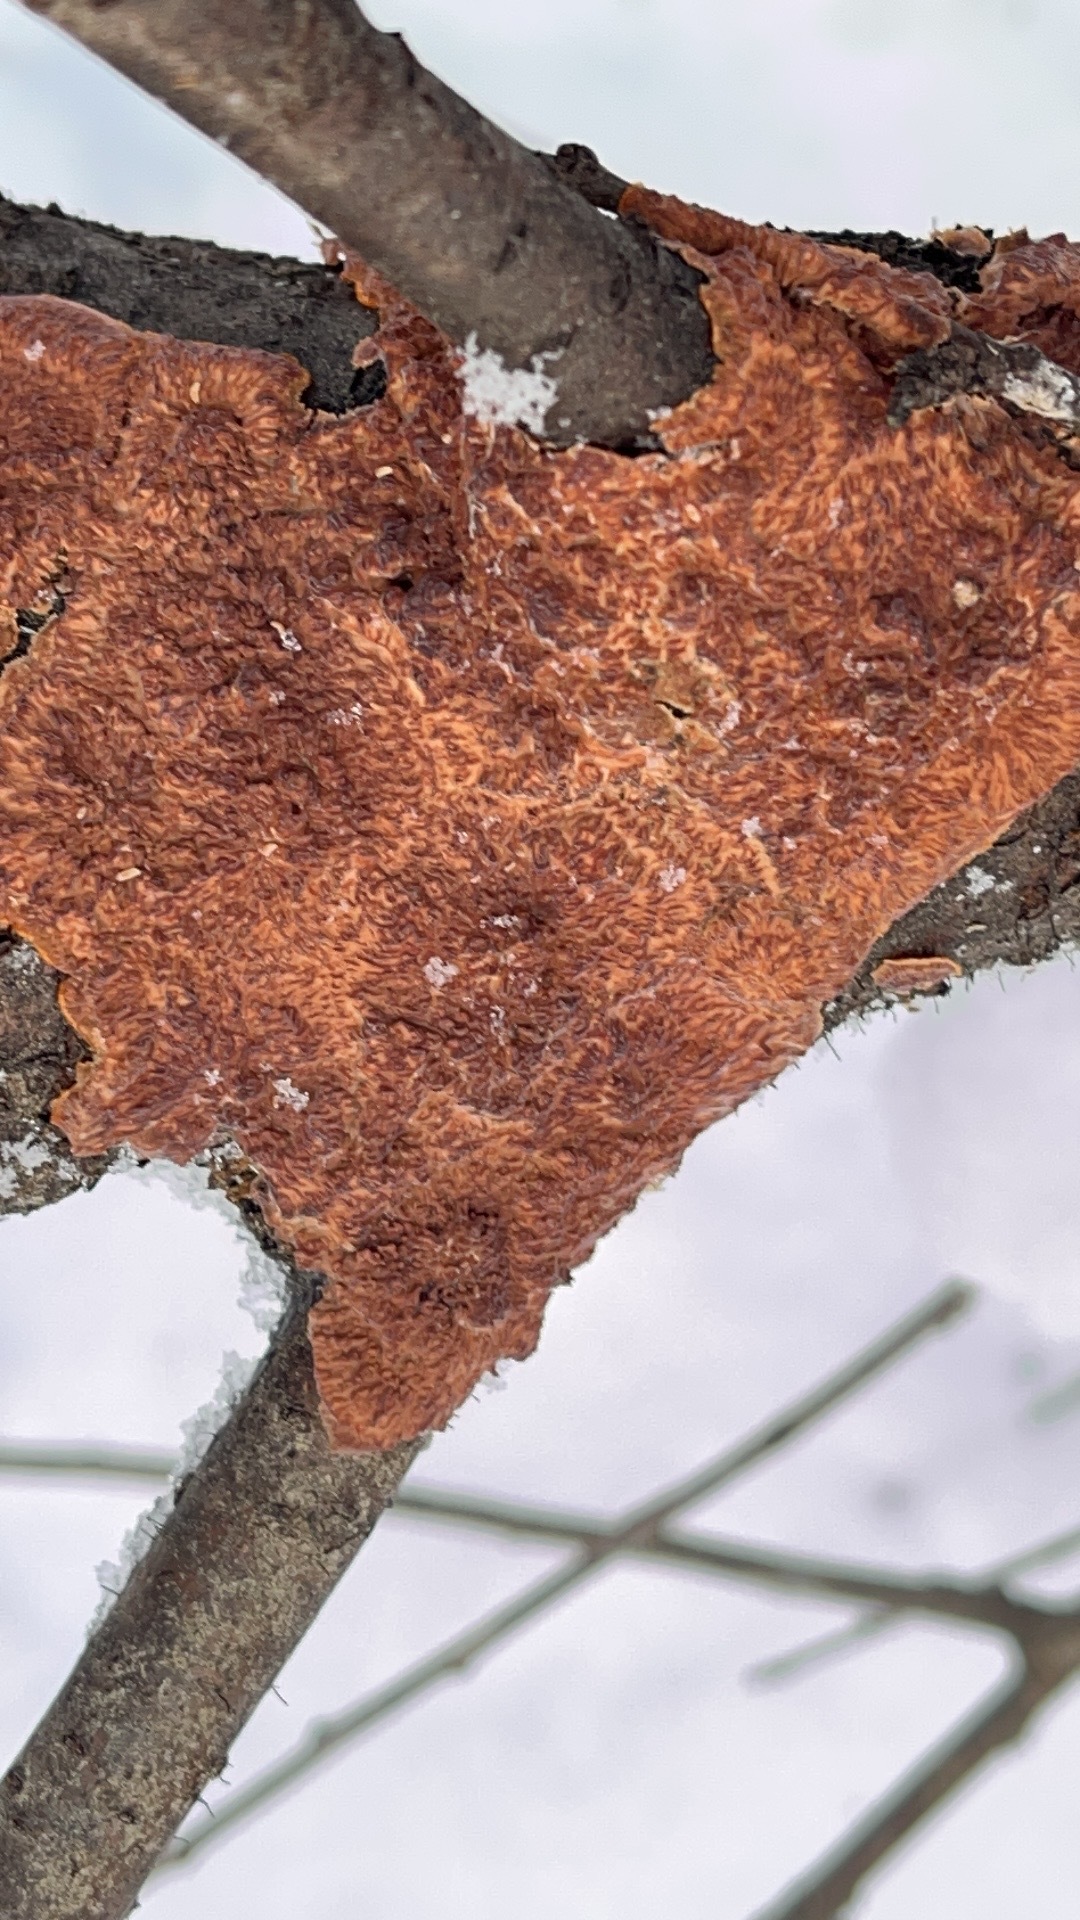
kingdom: Fungi
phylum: Basidiomycota
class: Agaricomycetes
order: Polyporales
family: Meruliaceae
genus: Phlebia
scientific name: Phlebia radiata
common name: Wrinkled crust
